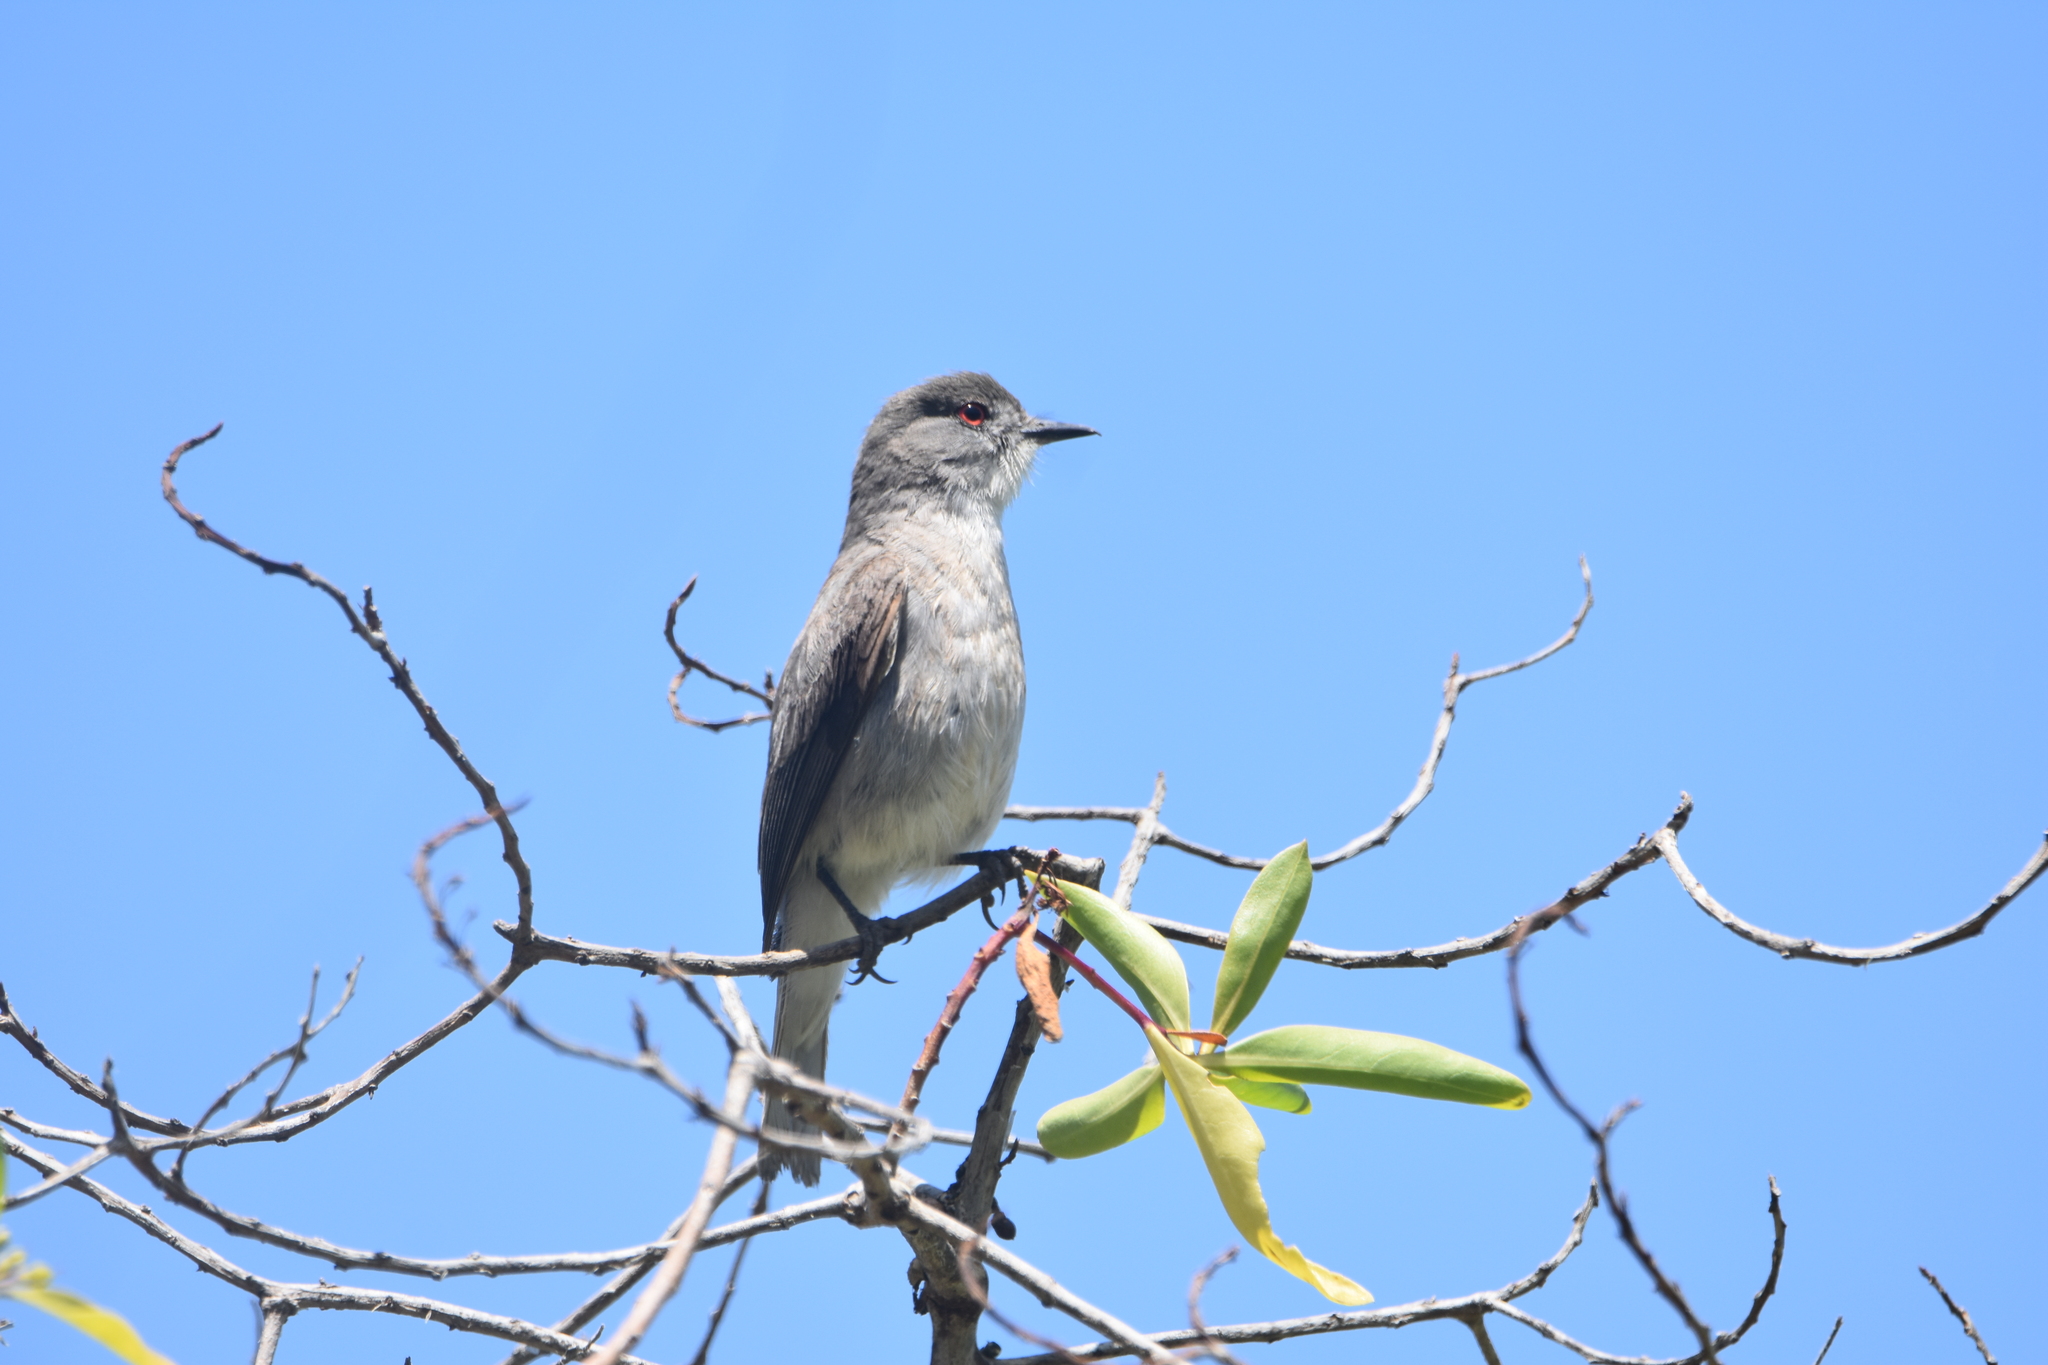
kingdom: Animalia
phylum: Chordata
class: Aves
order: Passeriformes
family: Tyrannidae
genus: Xolmis
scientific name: Xolmis pyrope
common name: Fire-eyed diucon
